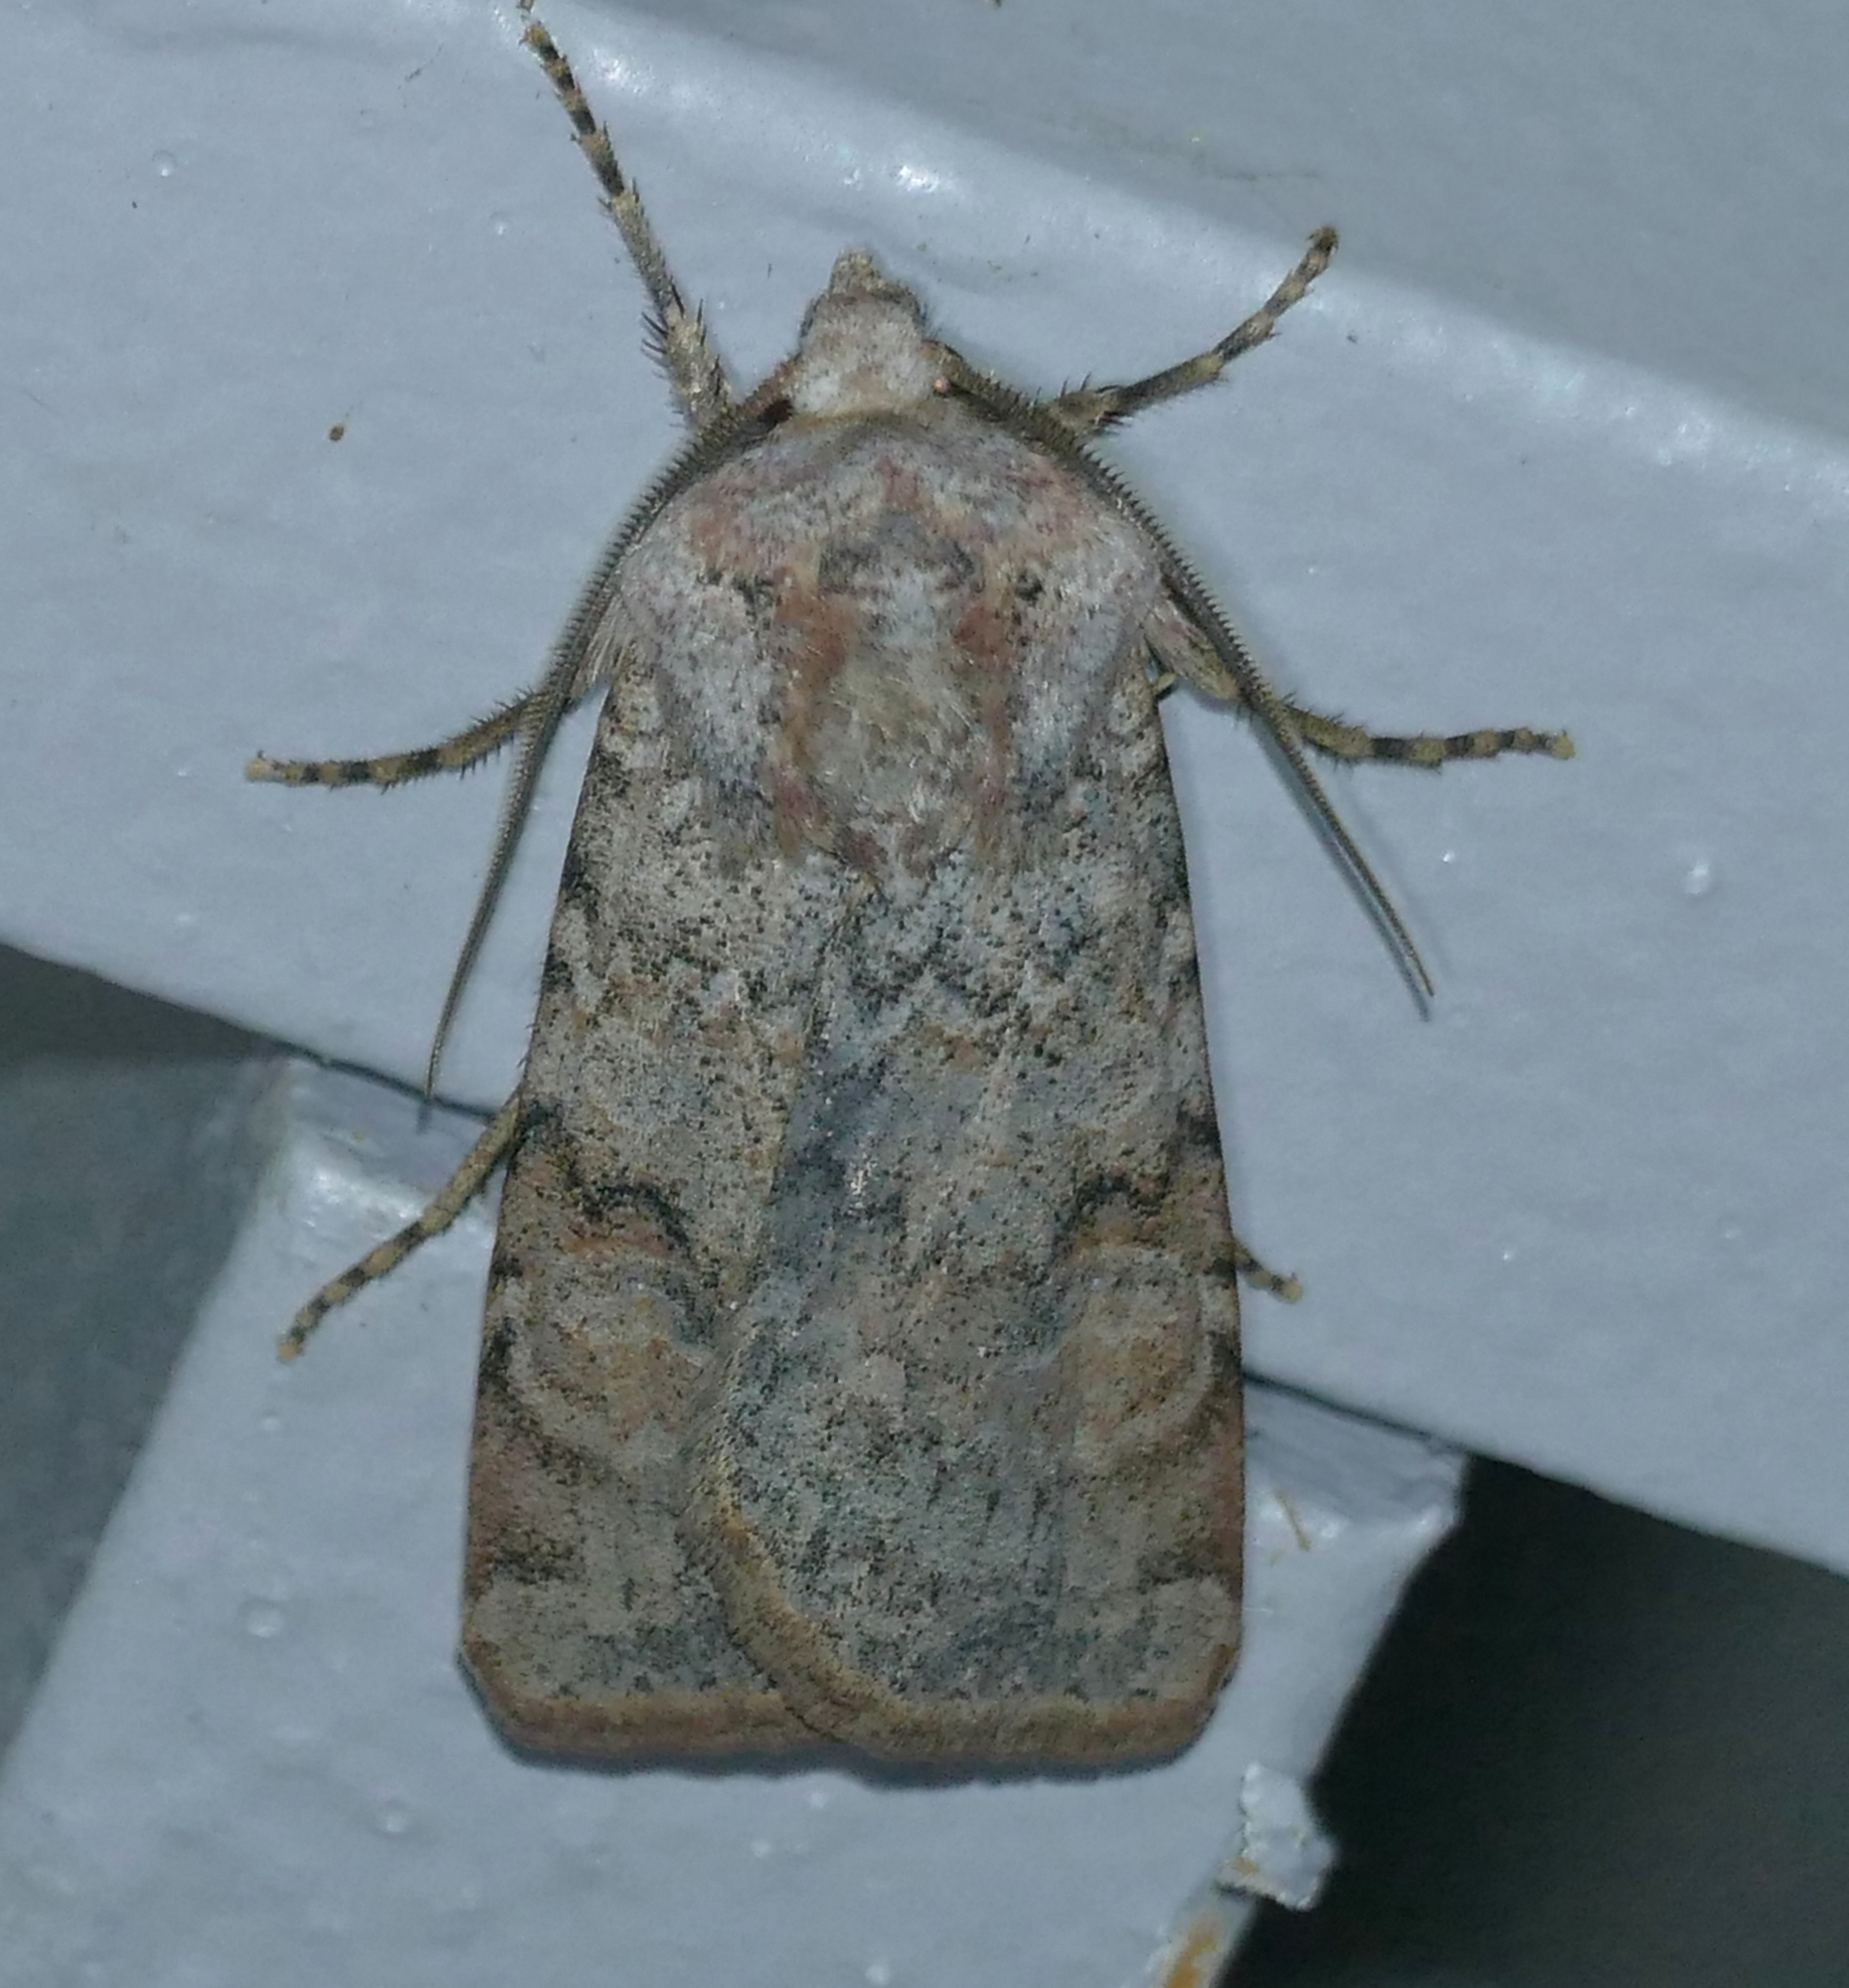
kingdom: Animalia
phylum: Arthropoda
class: Insecta
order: Lepidoptera
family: Noctuidae
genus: Euxoa
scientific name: Euxoa medialis
